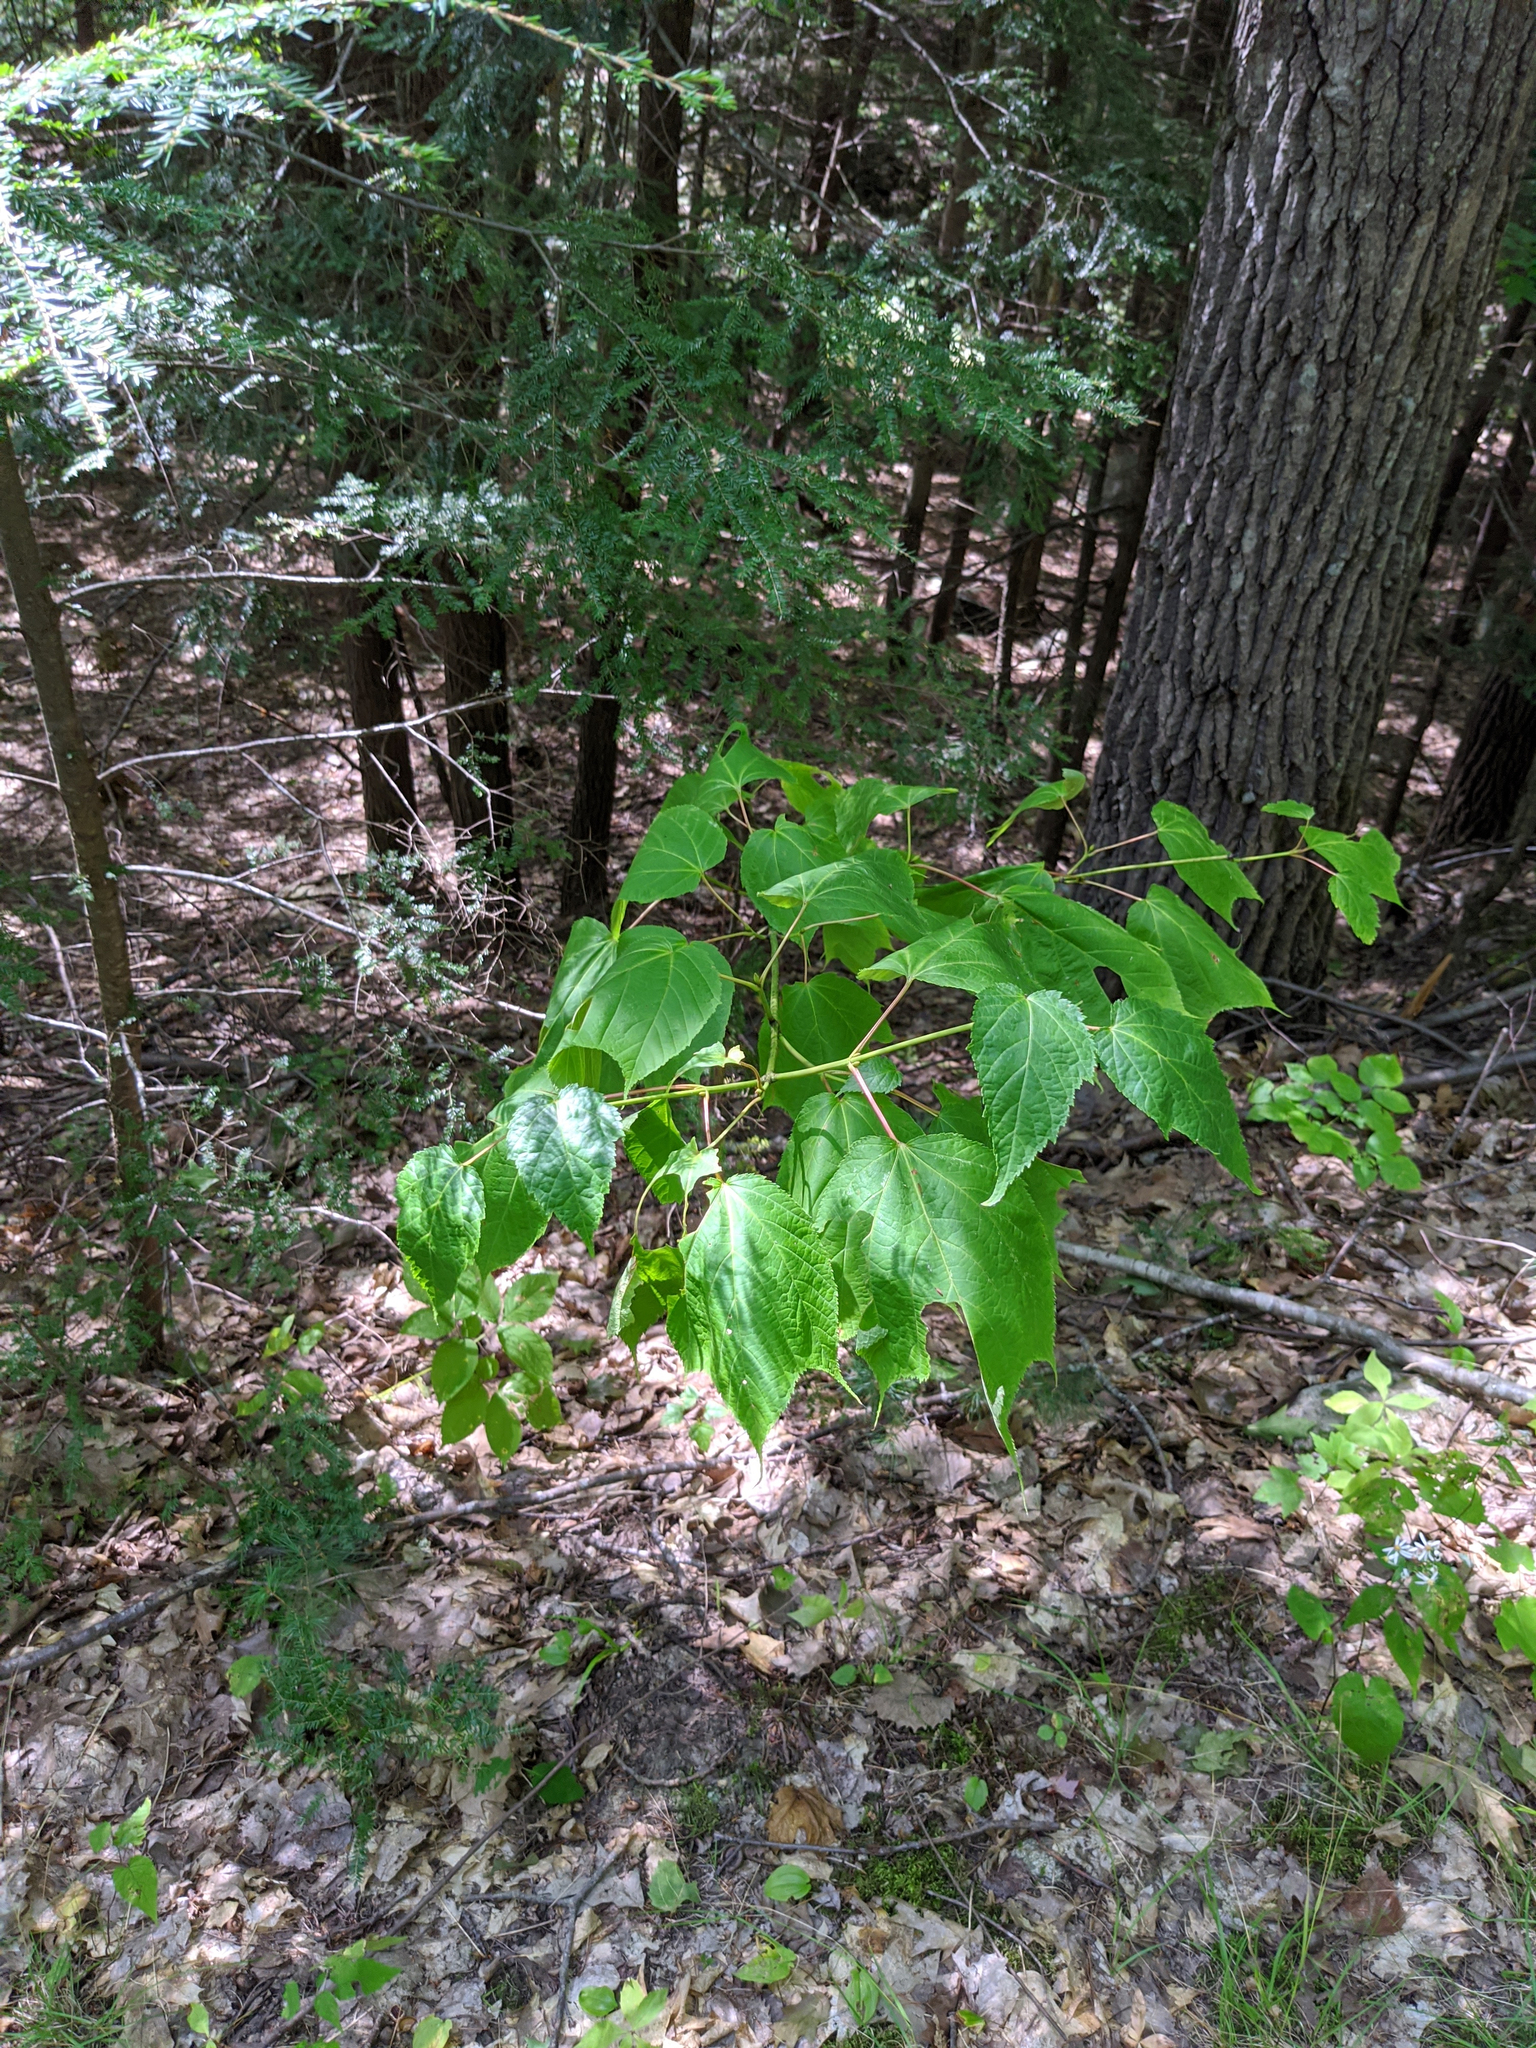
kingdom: Plantae
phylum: Tracheophyta
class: Magnoliopsida
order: Sapindales
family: Sapindaceae
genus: Acer
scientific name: Acer pensylvanicum
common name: Moosewood
